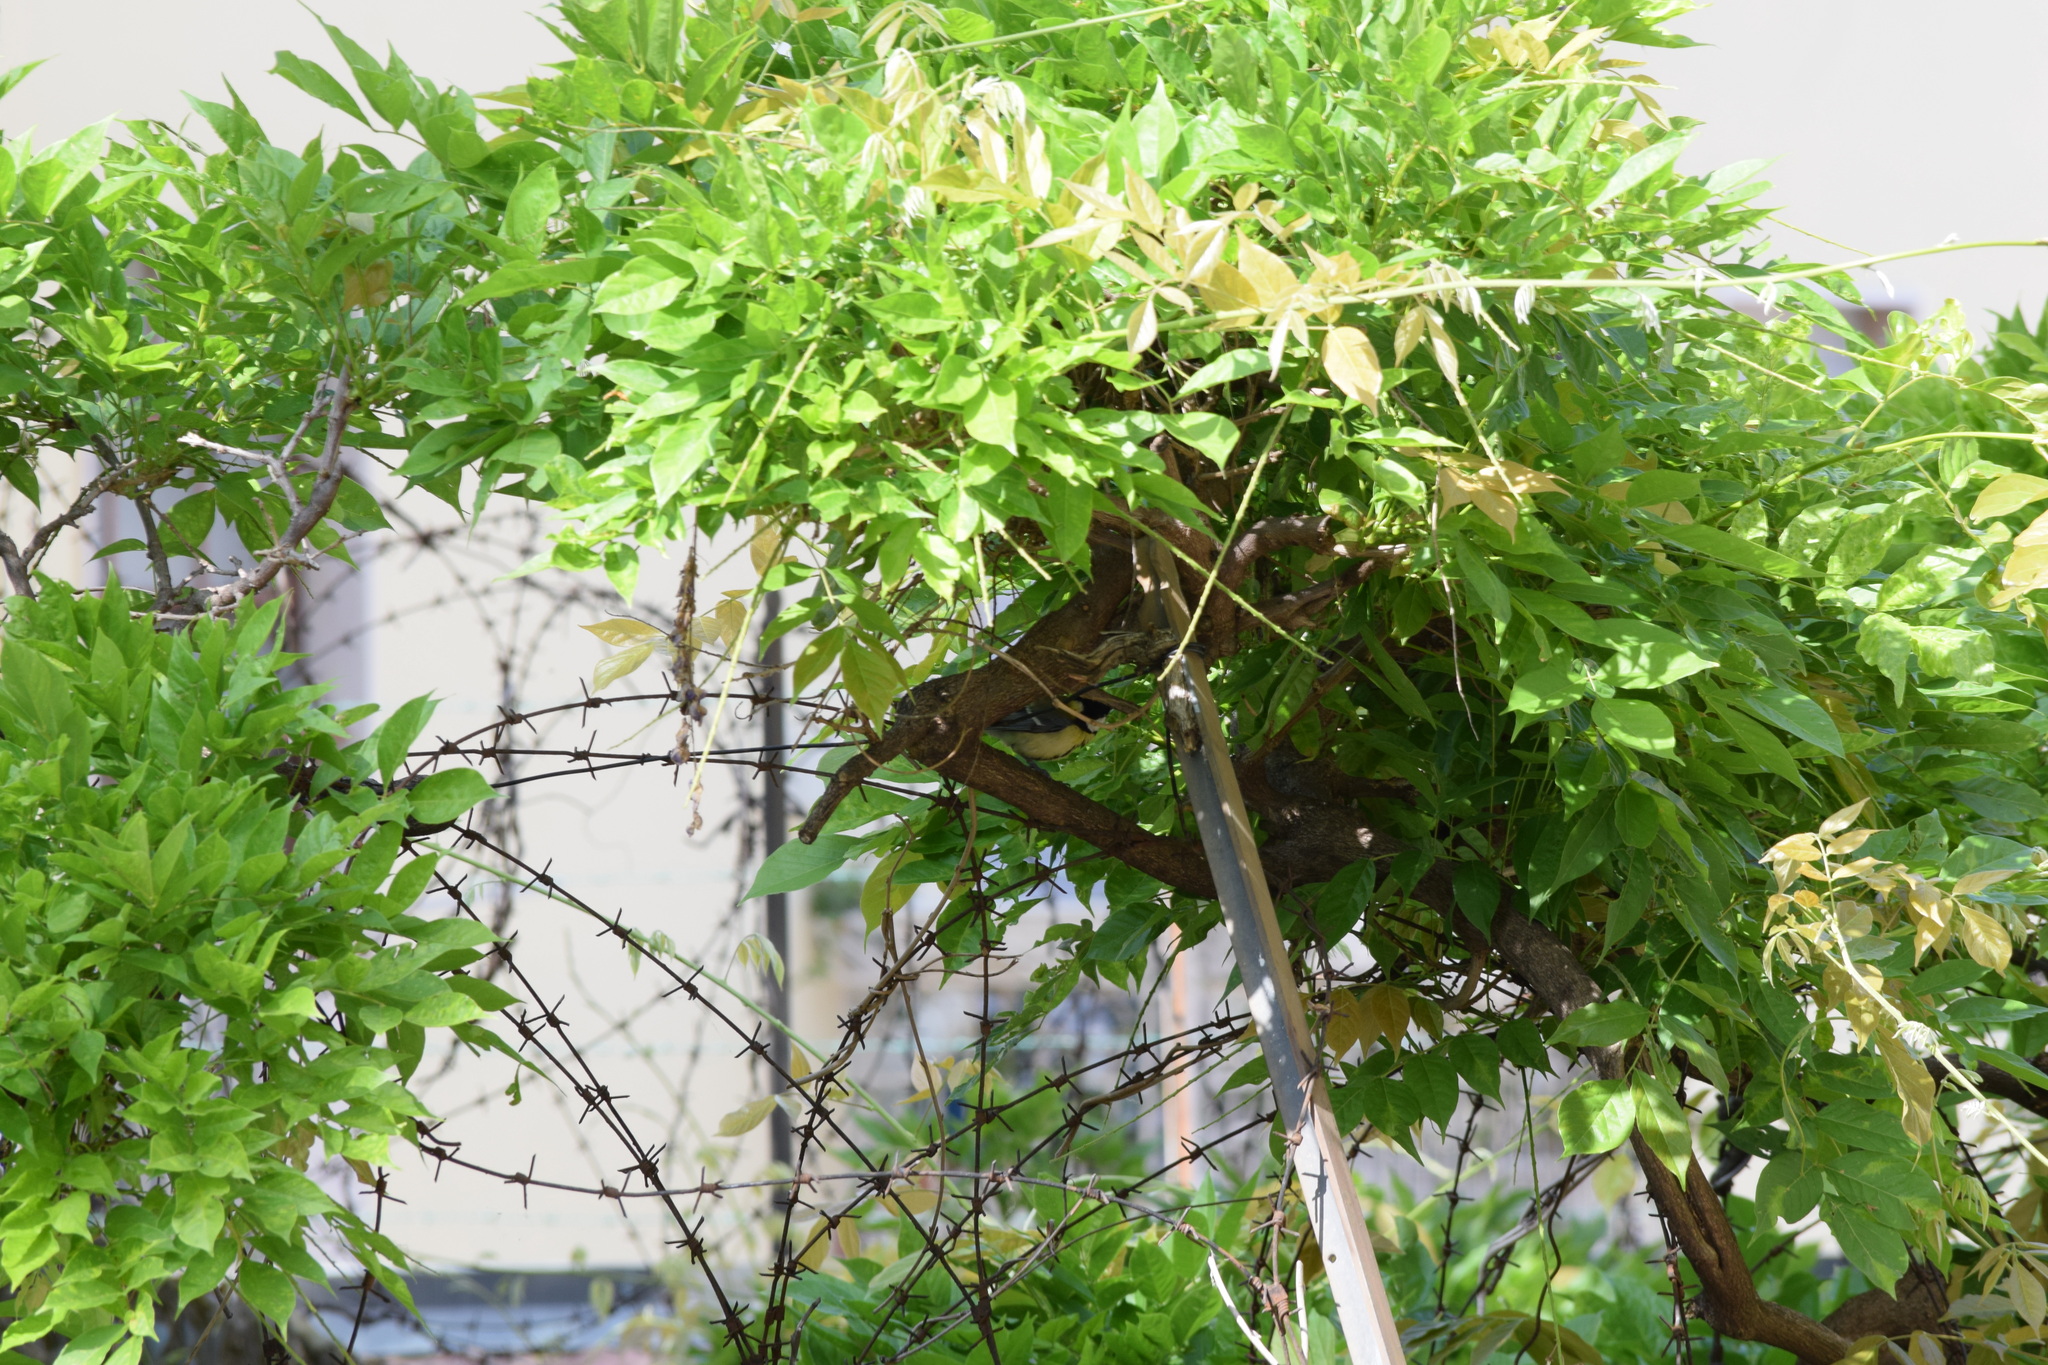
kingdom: Animalia
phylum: Chordata
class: Aves
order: Passeriformes
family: Paridae
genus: Parus
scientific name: Parus major
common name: Great tit
